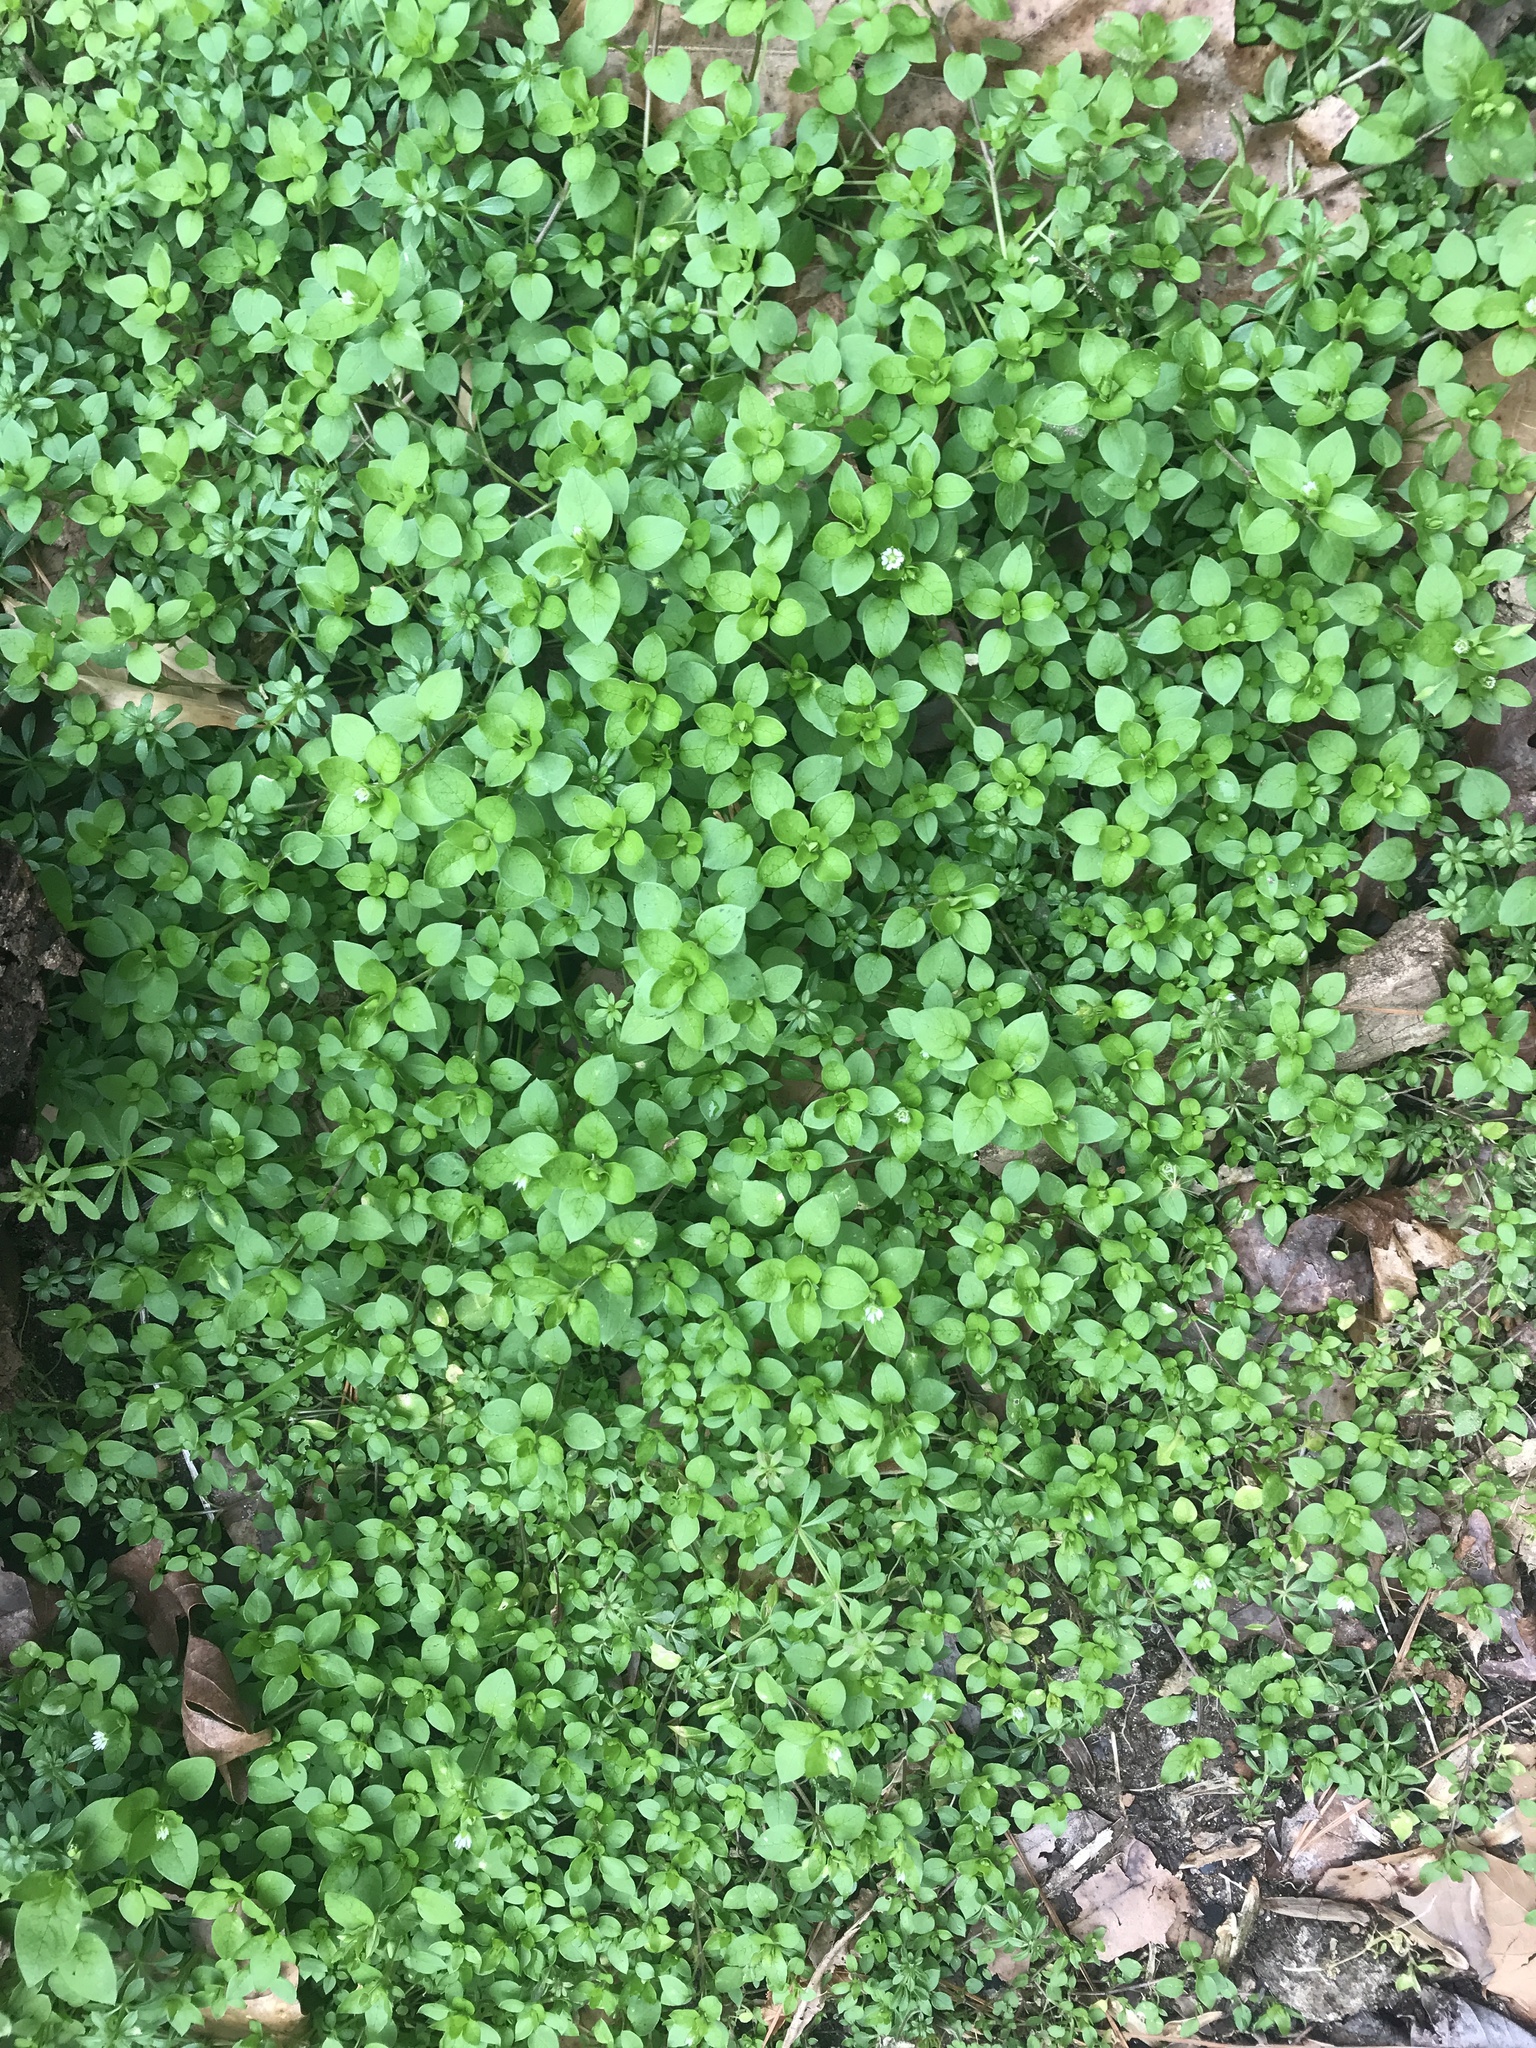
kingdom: Plantae
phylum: Tracheophyta
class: Magnoliopsida
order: Caryophyllales
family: Caryophyllaceae
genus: Stellaria
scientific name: Stellaria media
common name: Common chickweed
